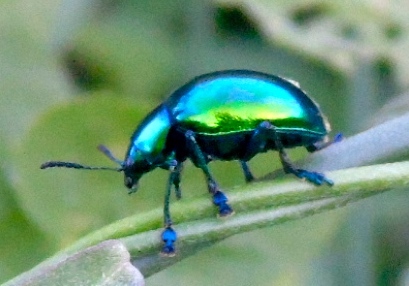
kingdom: Animalia
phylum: Arthropoda
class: Insecta
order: Coleoptera
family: Chrysomelidae
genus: Eumolpus
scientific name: Eumolpus robustus
